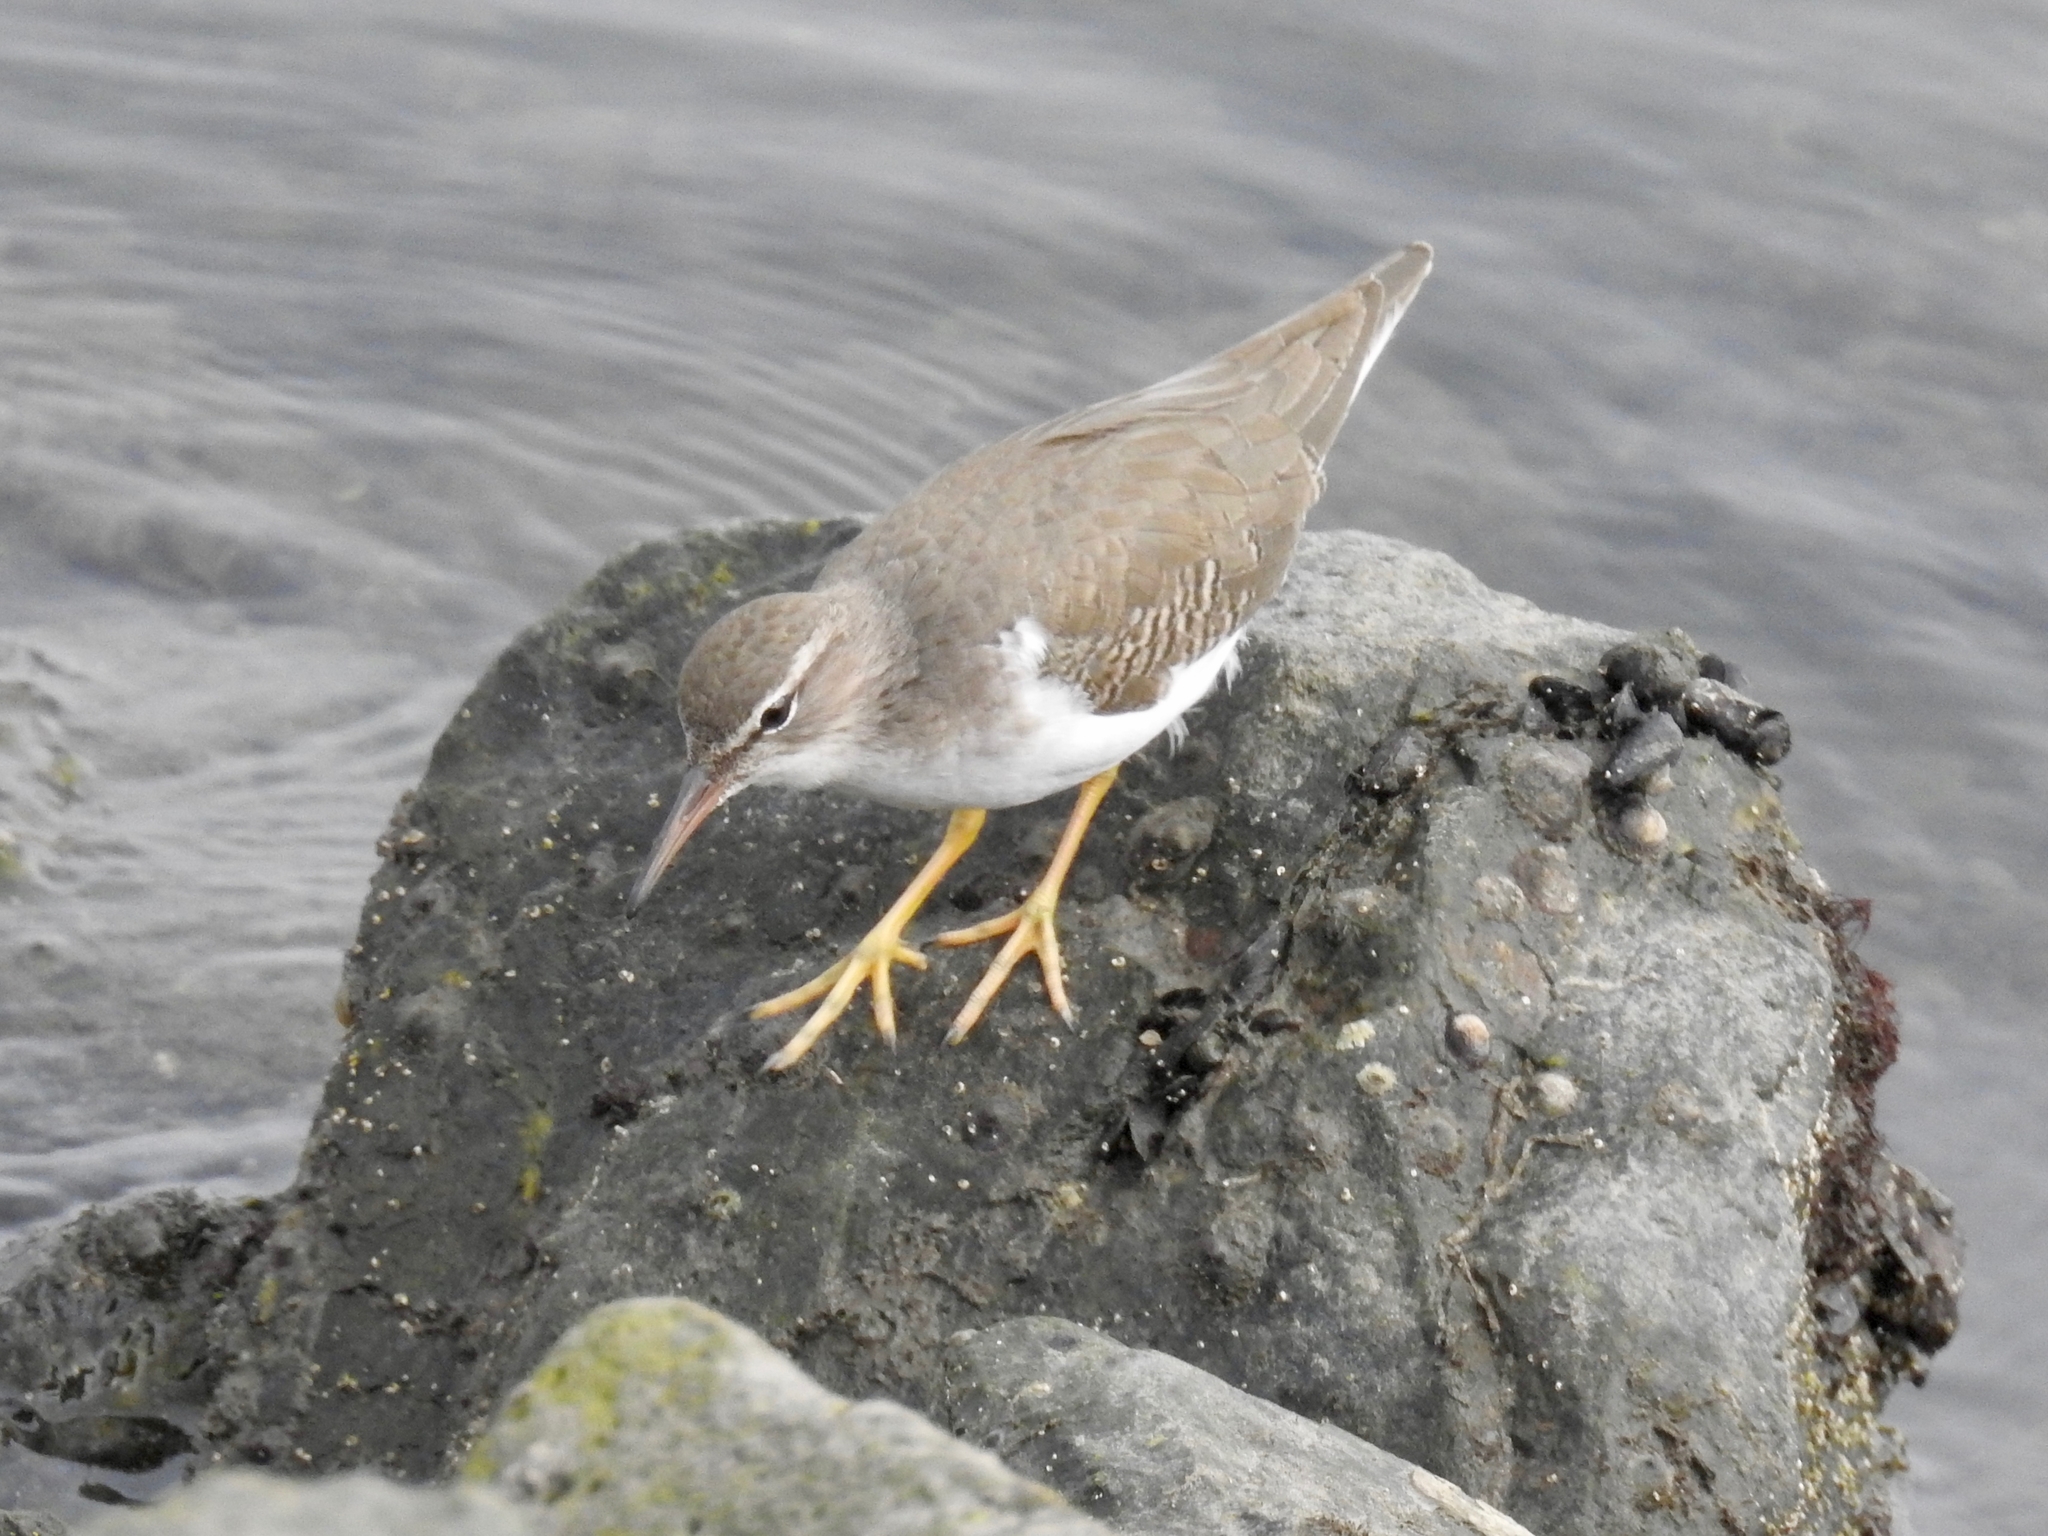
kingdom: Animalia
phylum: Chordata
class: Aves
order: Charadriiformes
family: Scolopacidae
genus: Actitis
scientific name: Actitis macularius
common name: Spotted sandpiper
